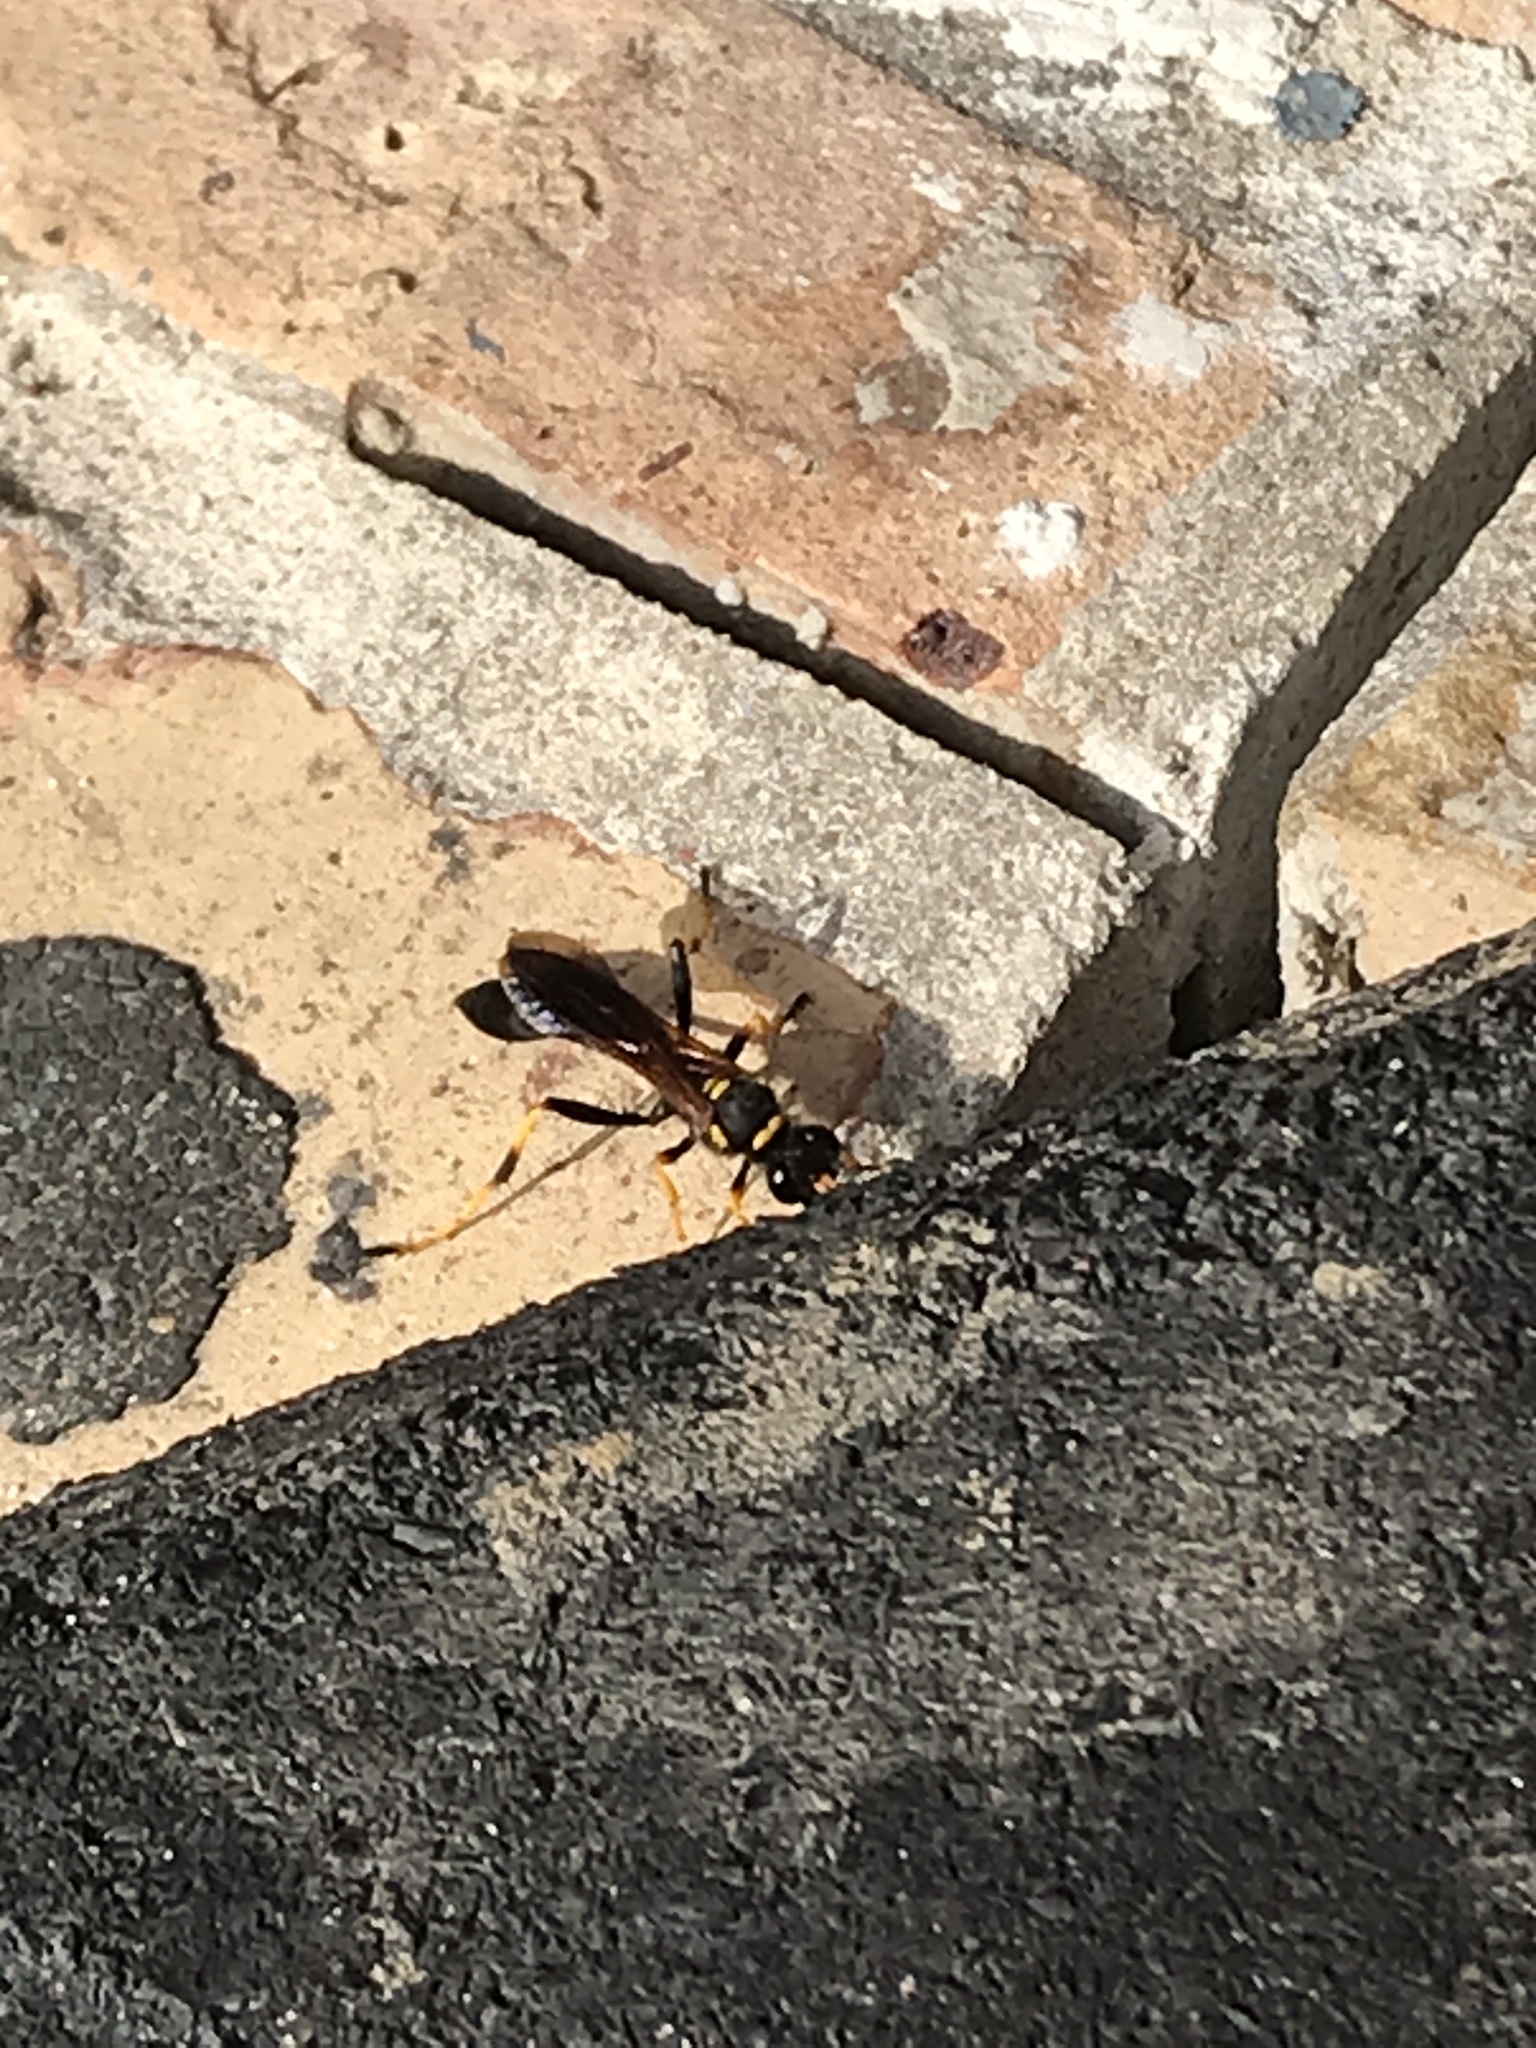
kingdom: Animalia
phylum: Arthropoda
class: Insecta
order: Hymenoptera
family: Sphecidae
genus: Sceliphron
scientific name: Sceliphron caementarium
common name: Mud dauber
